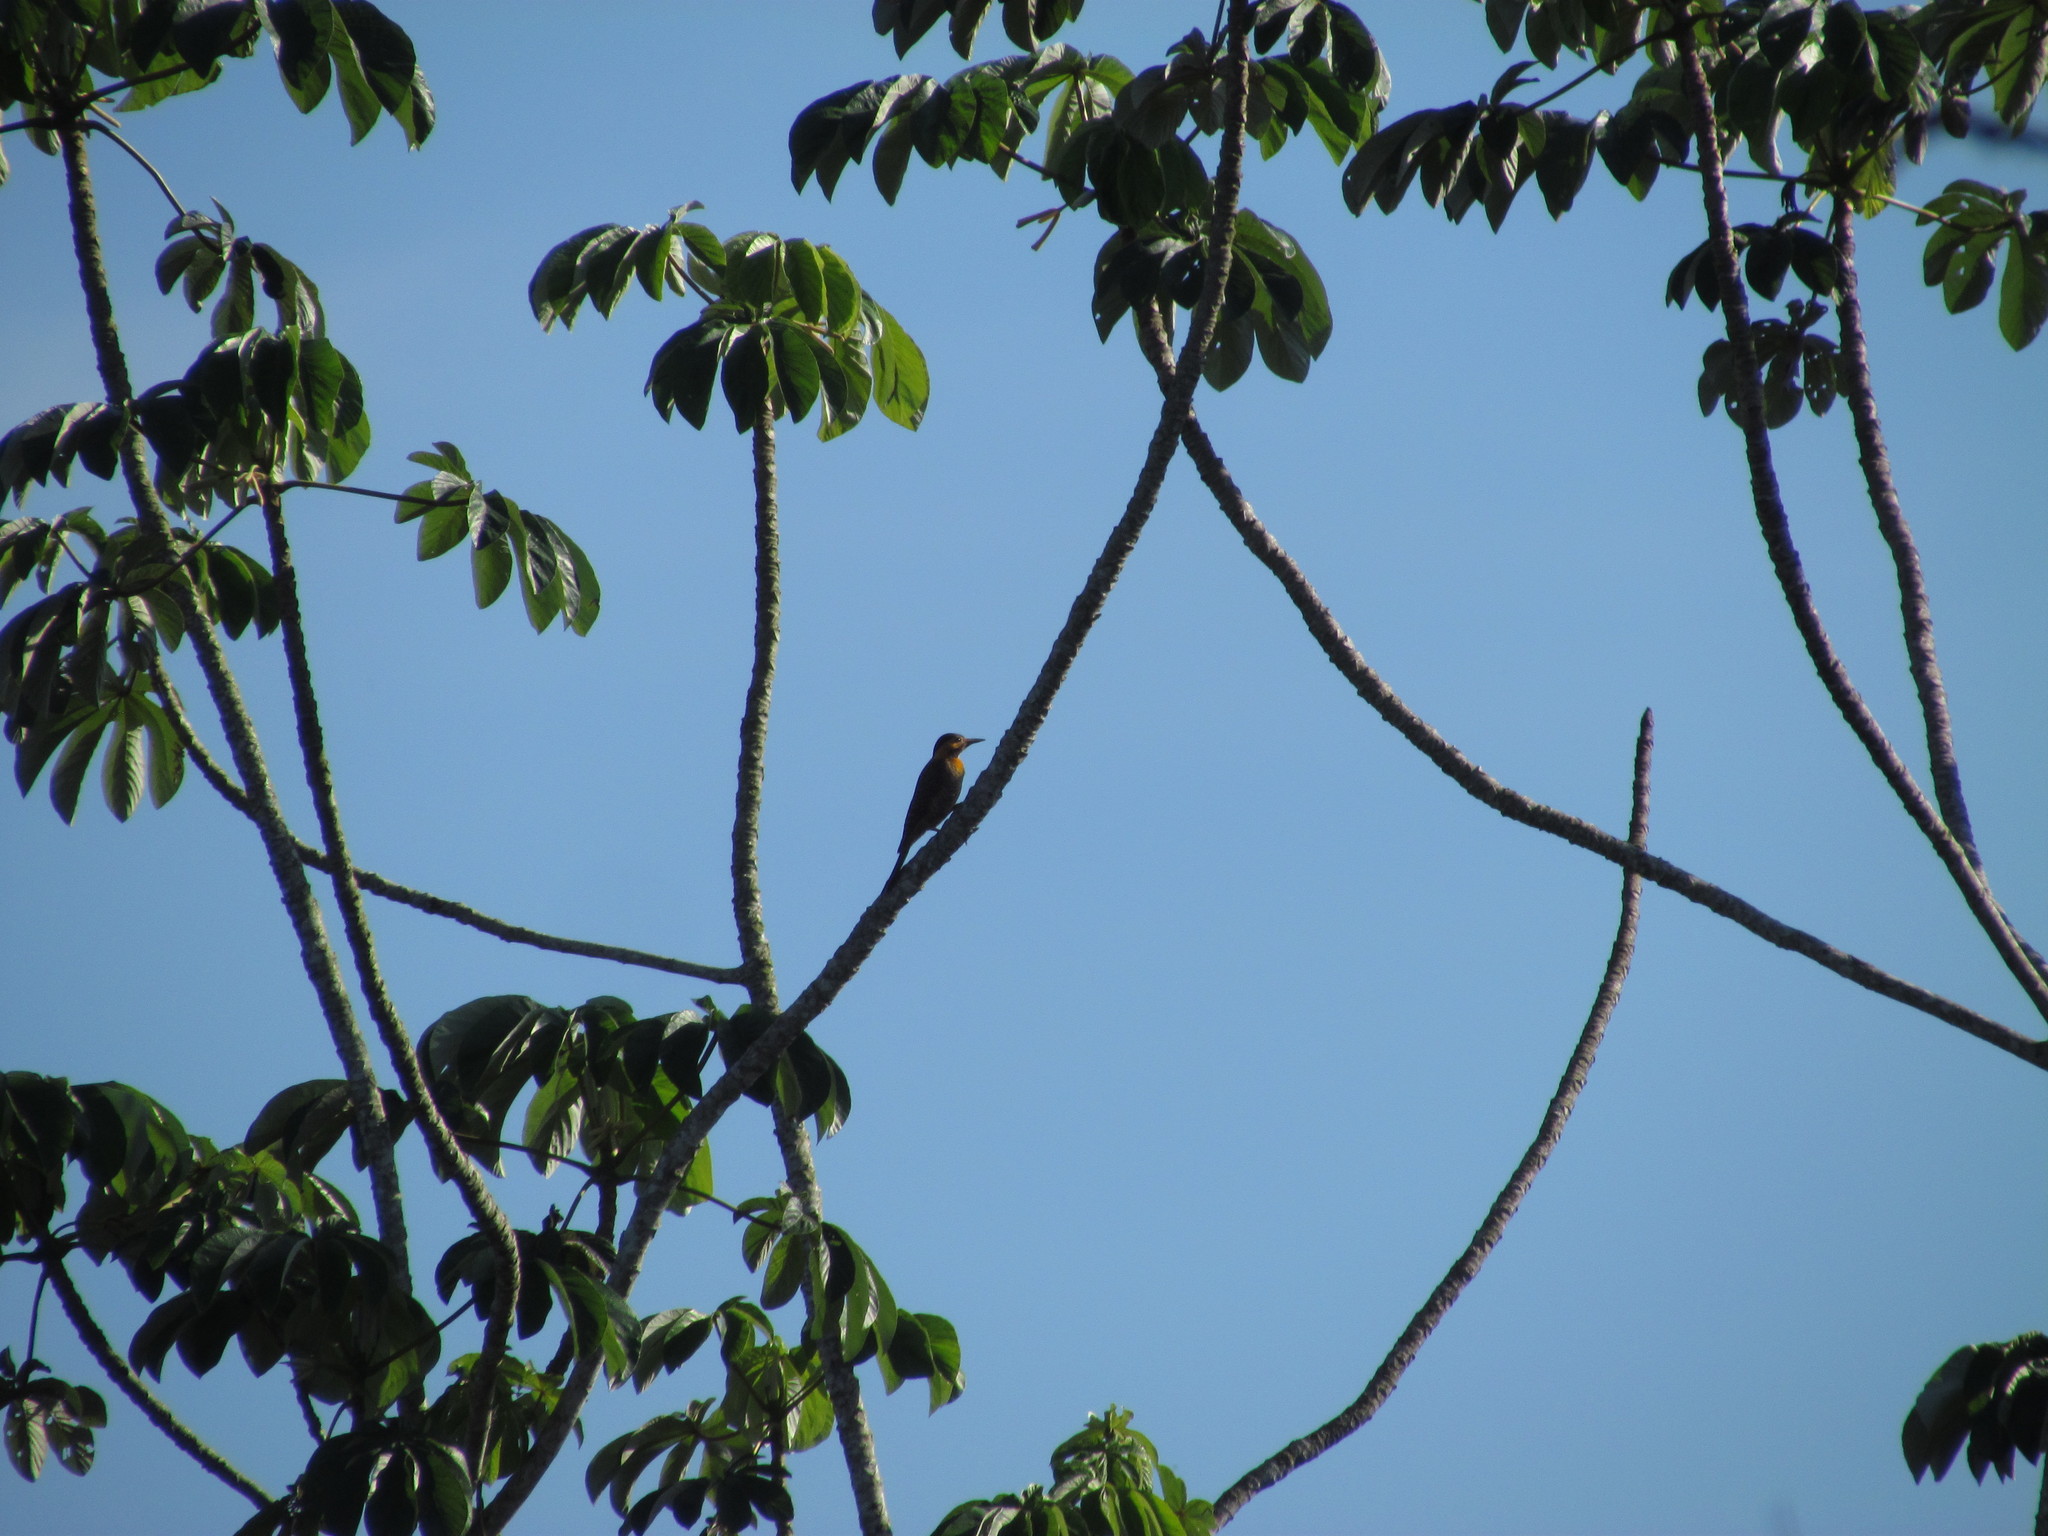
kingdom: Animalia
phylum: Chordata
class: Aves
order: Piciformes
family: Picidae
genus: Colaptes
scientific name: Colaptes campestris
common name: Campo flicker
